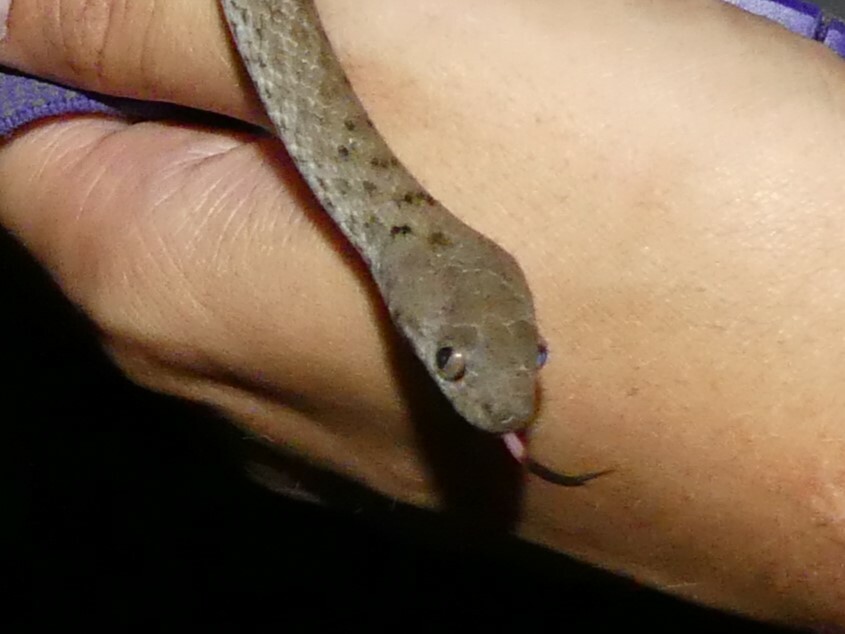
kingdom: Animalia
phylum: Chordata
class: Squamata
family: Pseudoxyrhophiidae
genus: Madagascarophis
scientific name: Madagascarophis colubrinus
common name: Madagascar night snake
